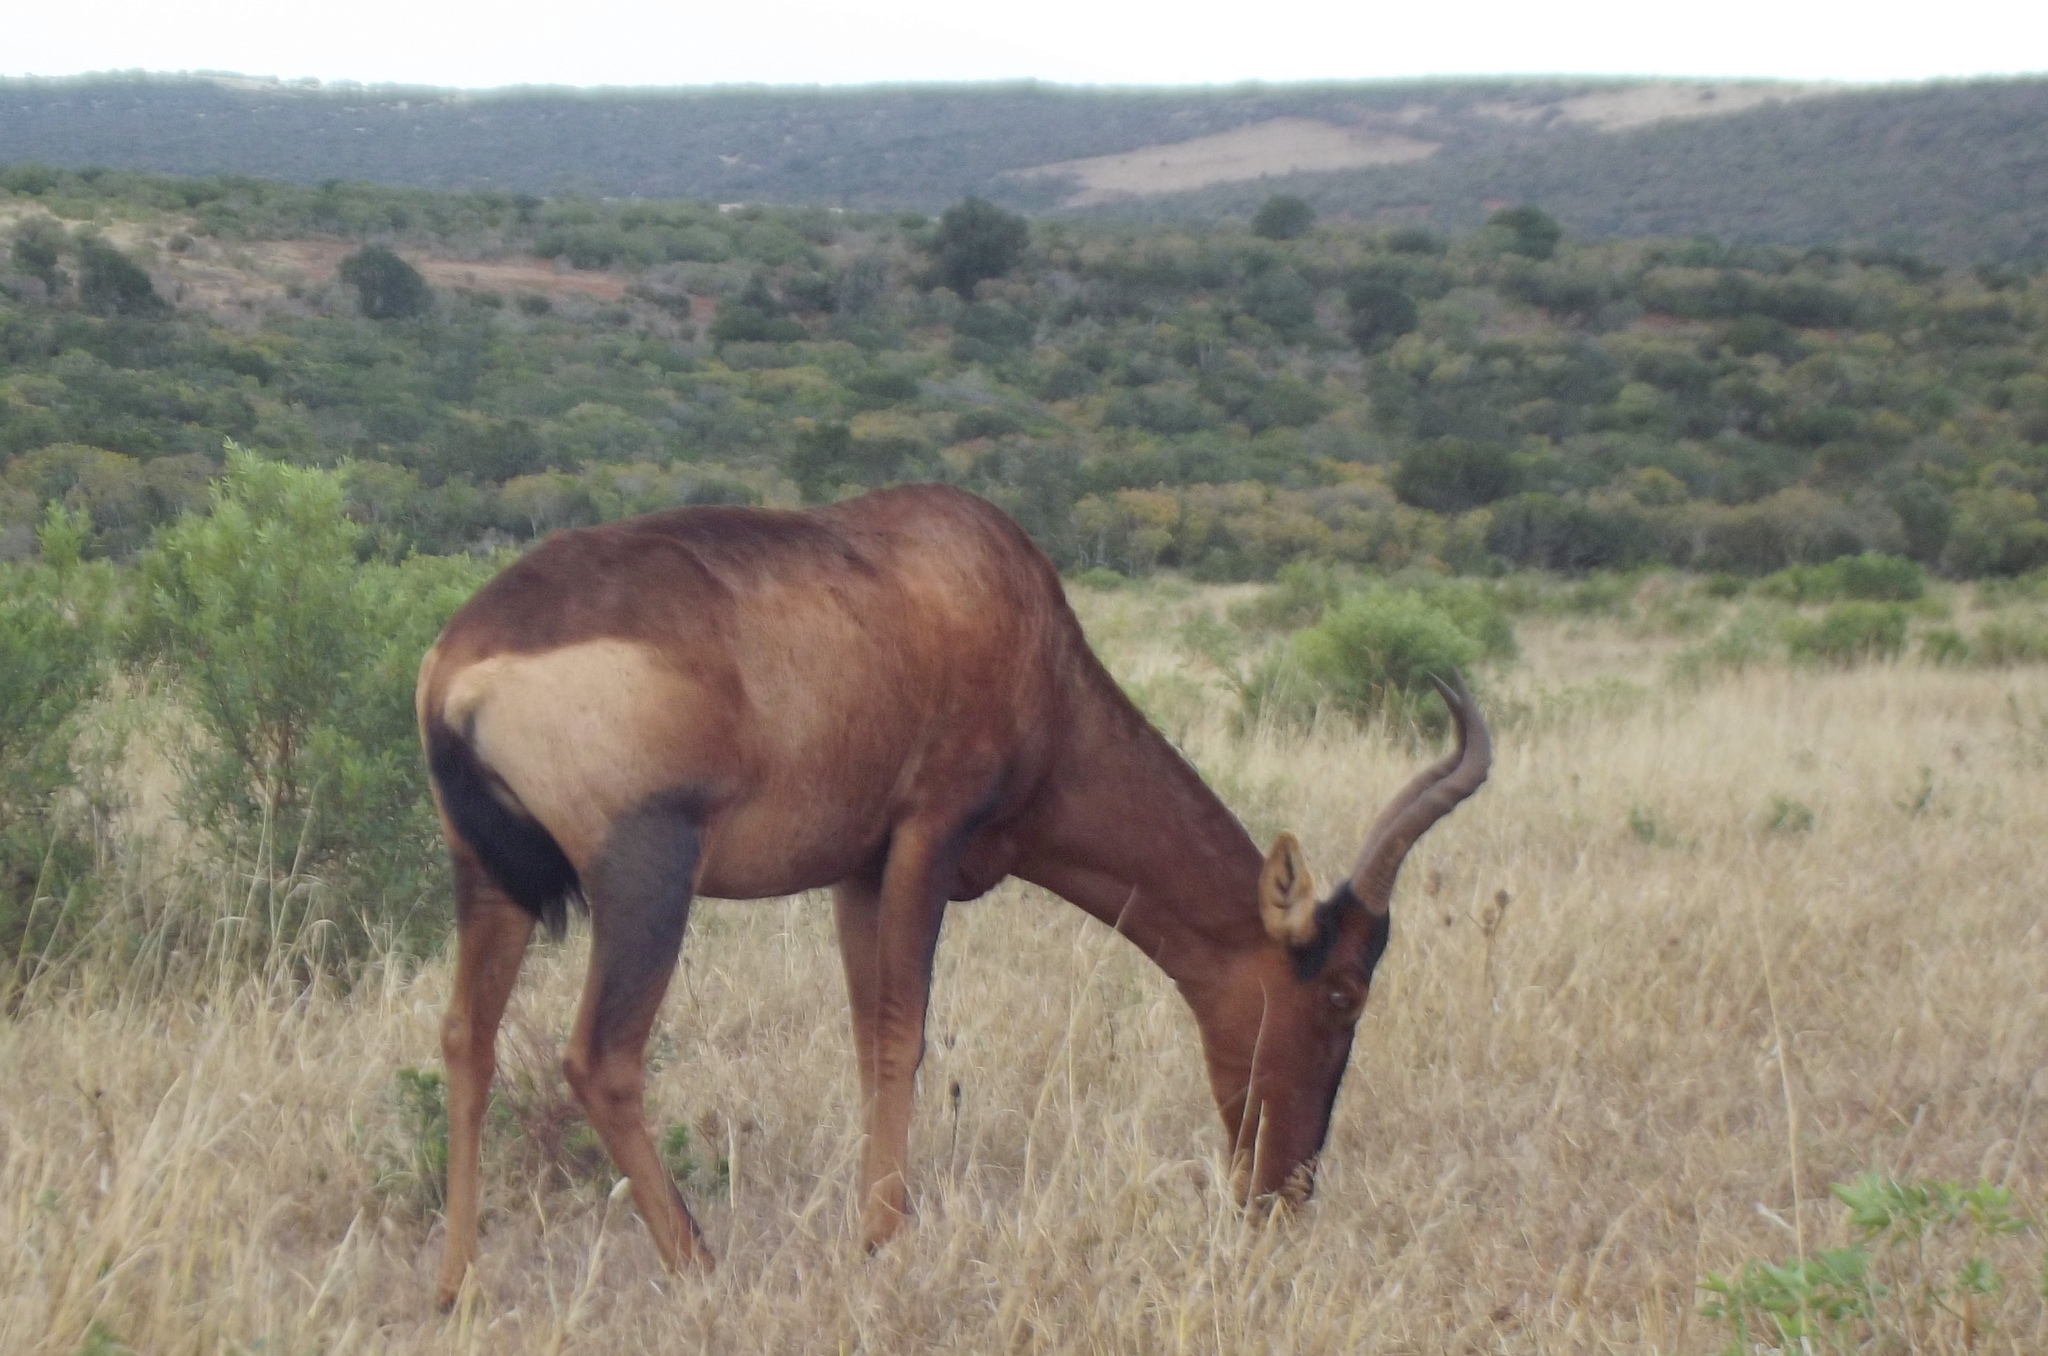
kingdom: Animalia
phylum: Chordata
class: Mammalia
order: Artiodactyla
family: Bovidae
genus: Alcelaphus
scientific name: Alcelaphus caama
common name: Red hartebeest
